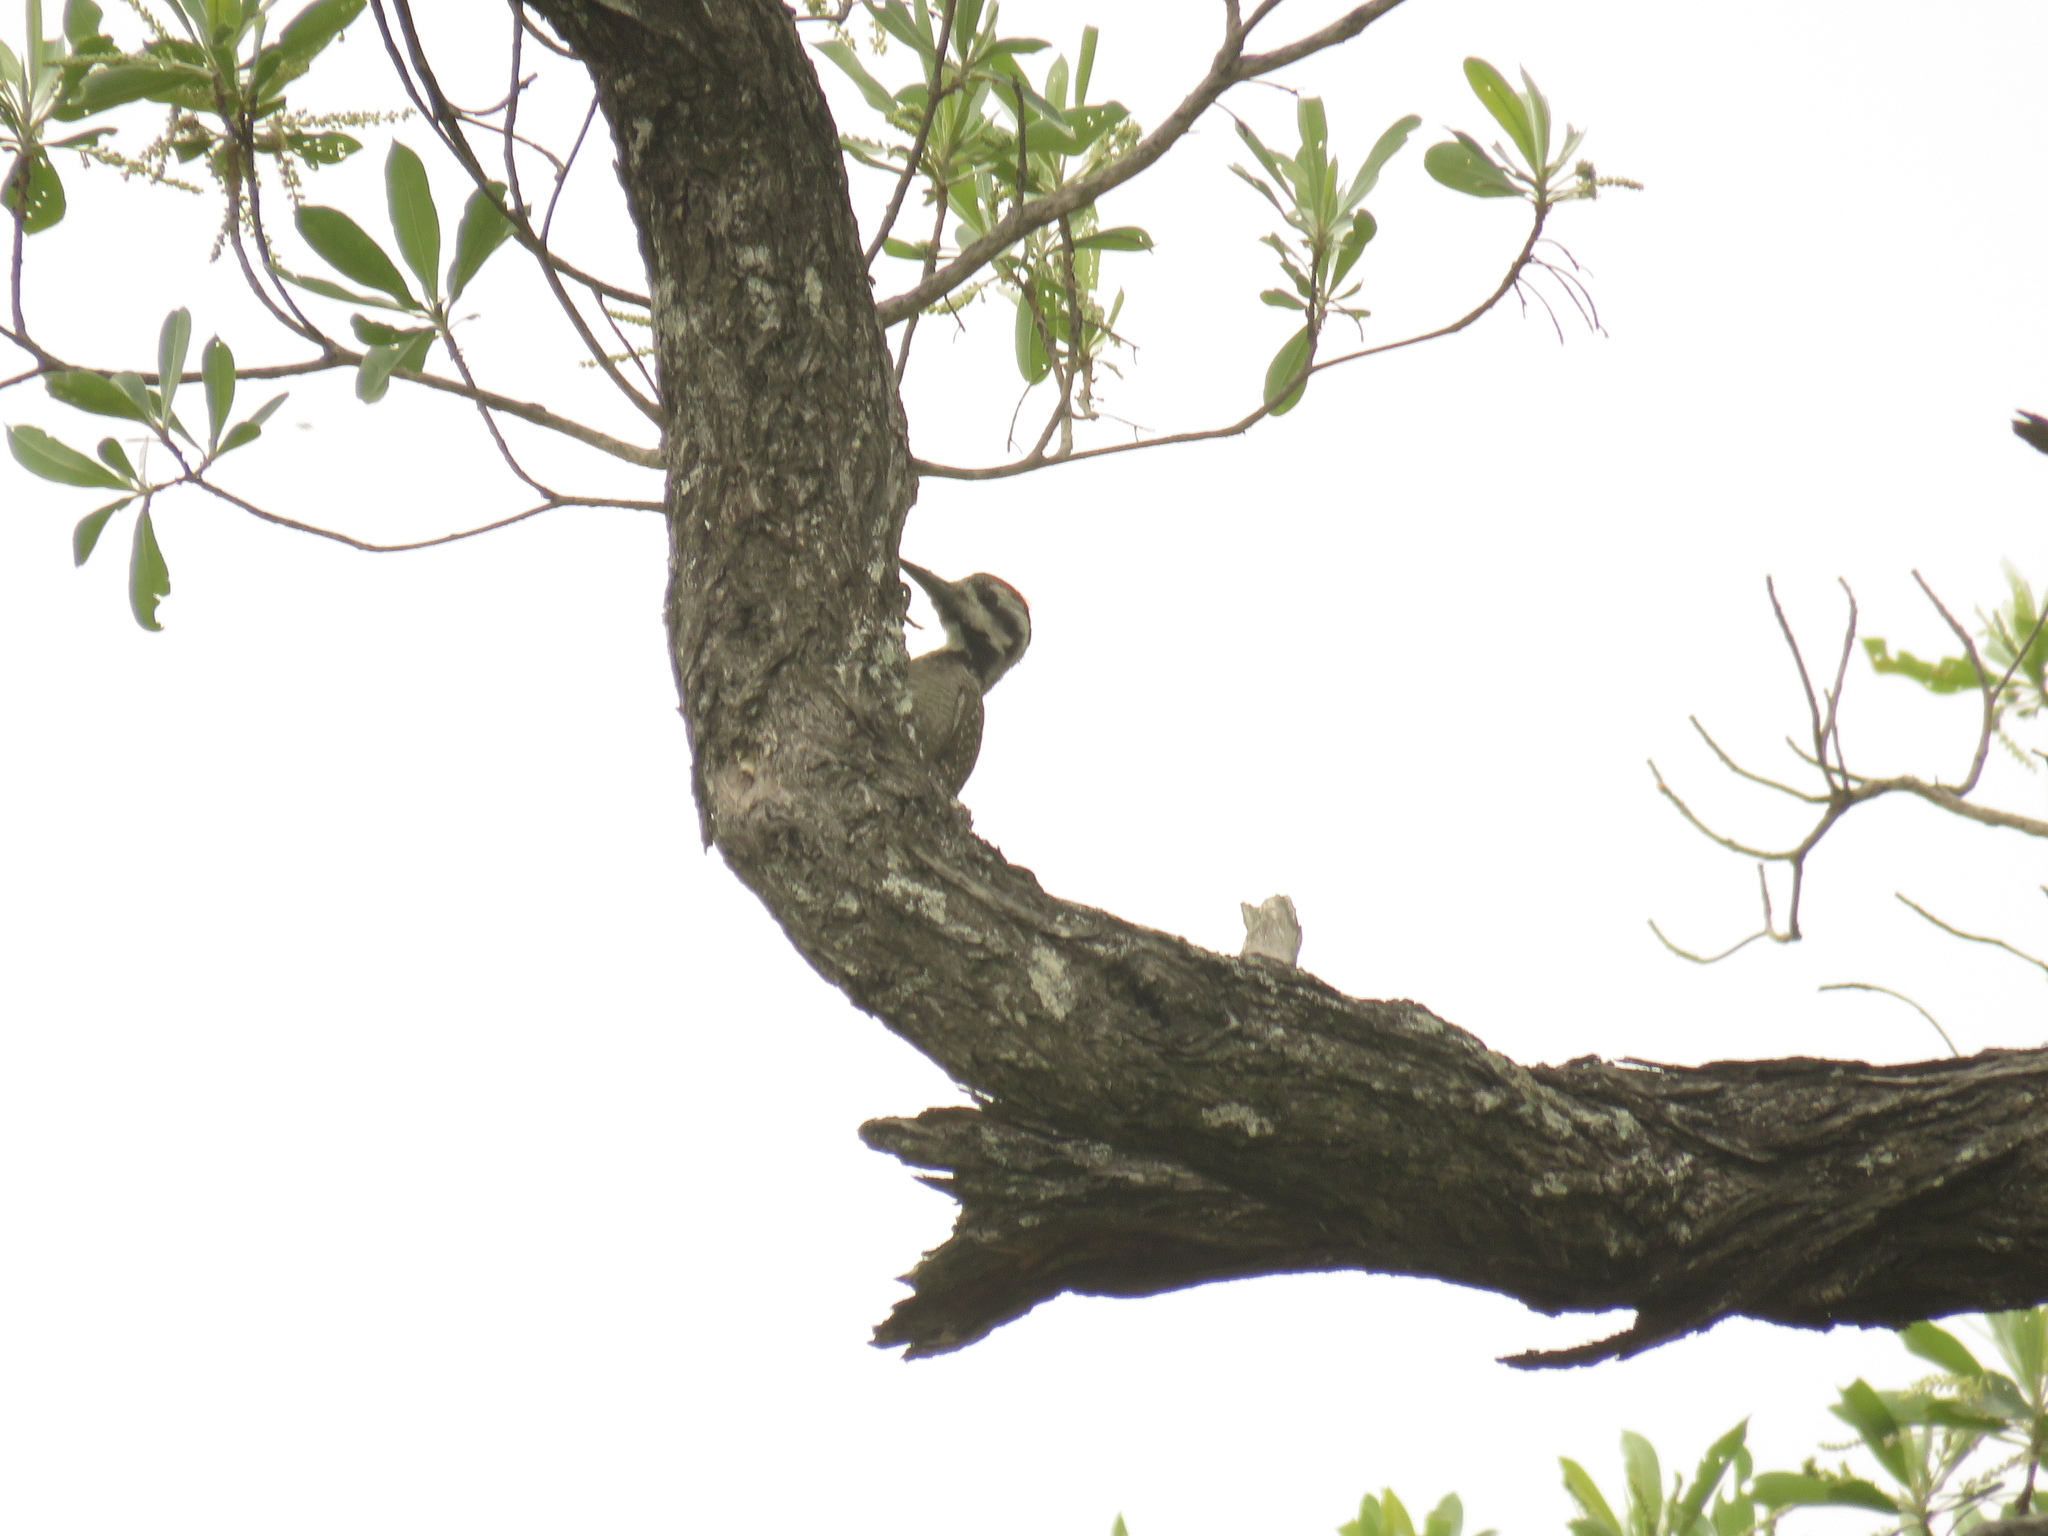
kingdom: Animalia
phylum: Chordata
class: Aves
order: Piciformes
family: Picidae
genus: Chloropicus
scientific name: Chloropicus namaquus
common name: Bearded woodpecker
